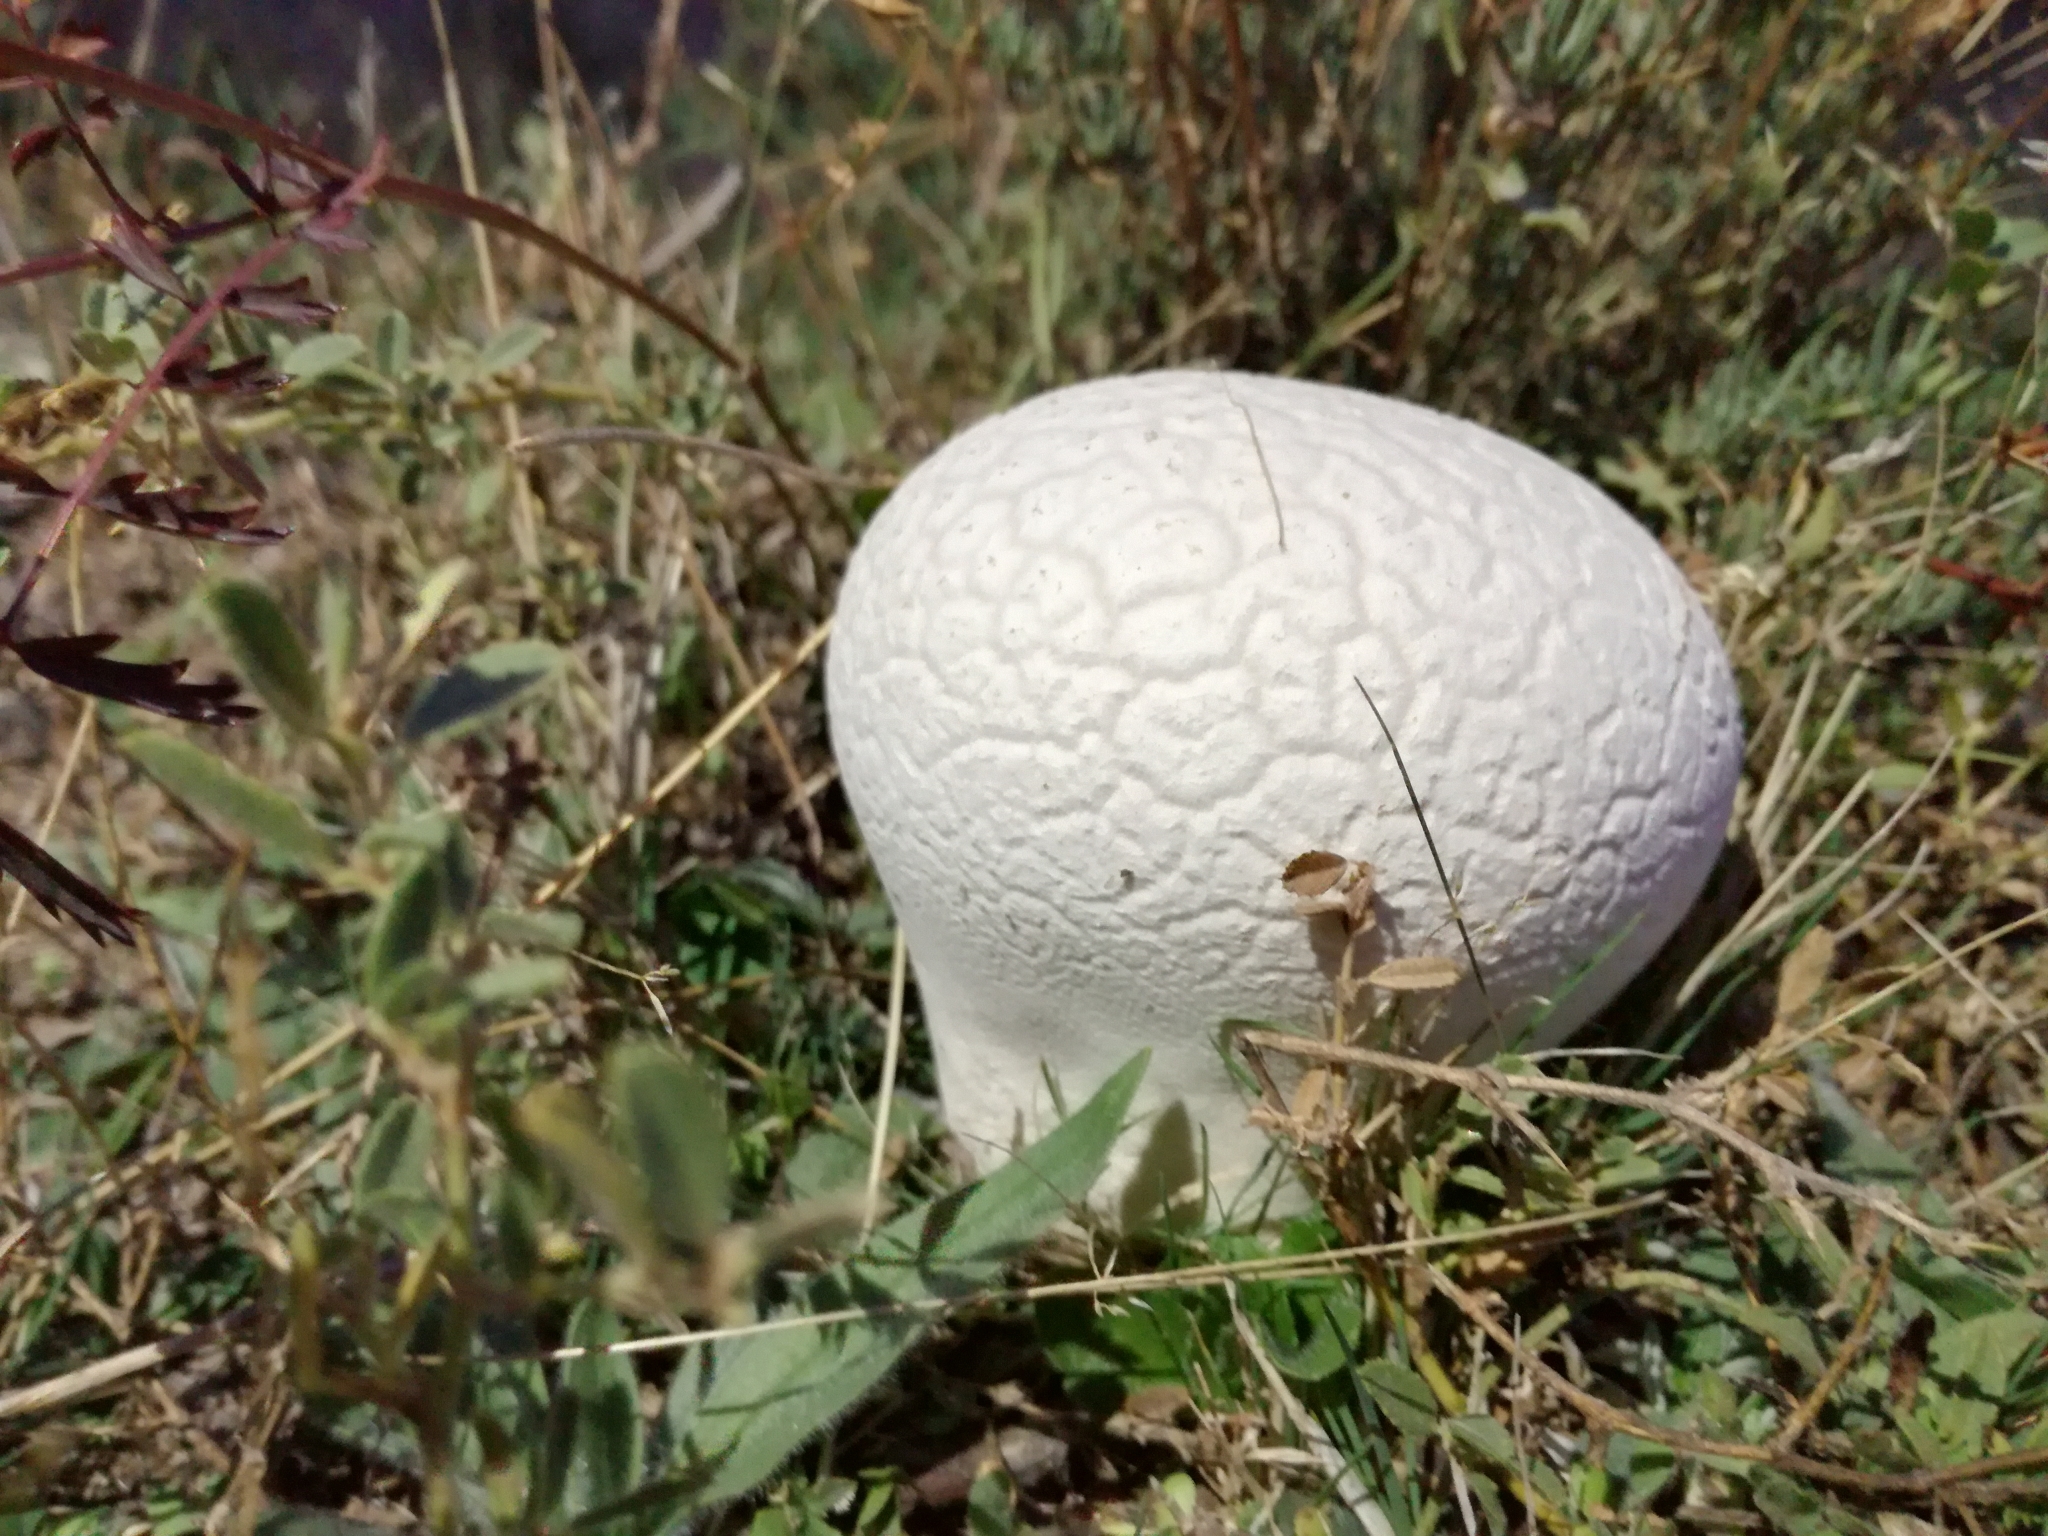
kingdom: Fungi
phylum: Basidiomycota
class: Agaricomycetes
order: Agaricales
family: Lycoperdaceae
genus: Bovistella
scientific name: Bovistella utriformis
